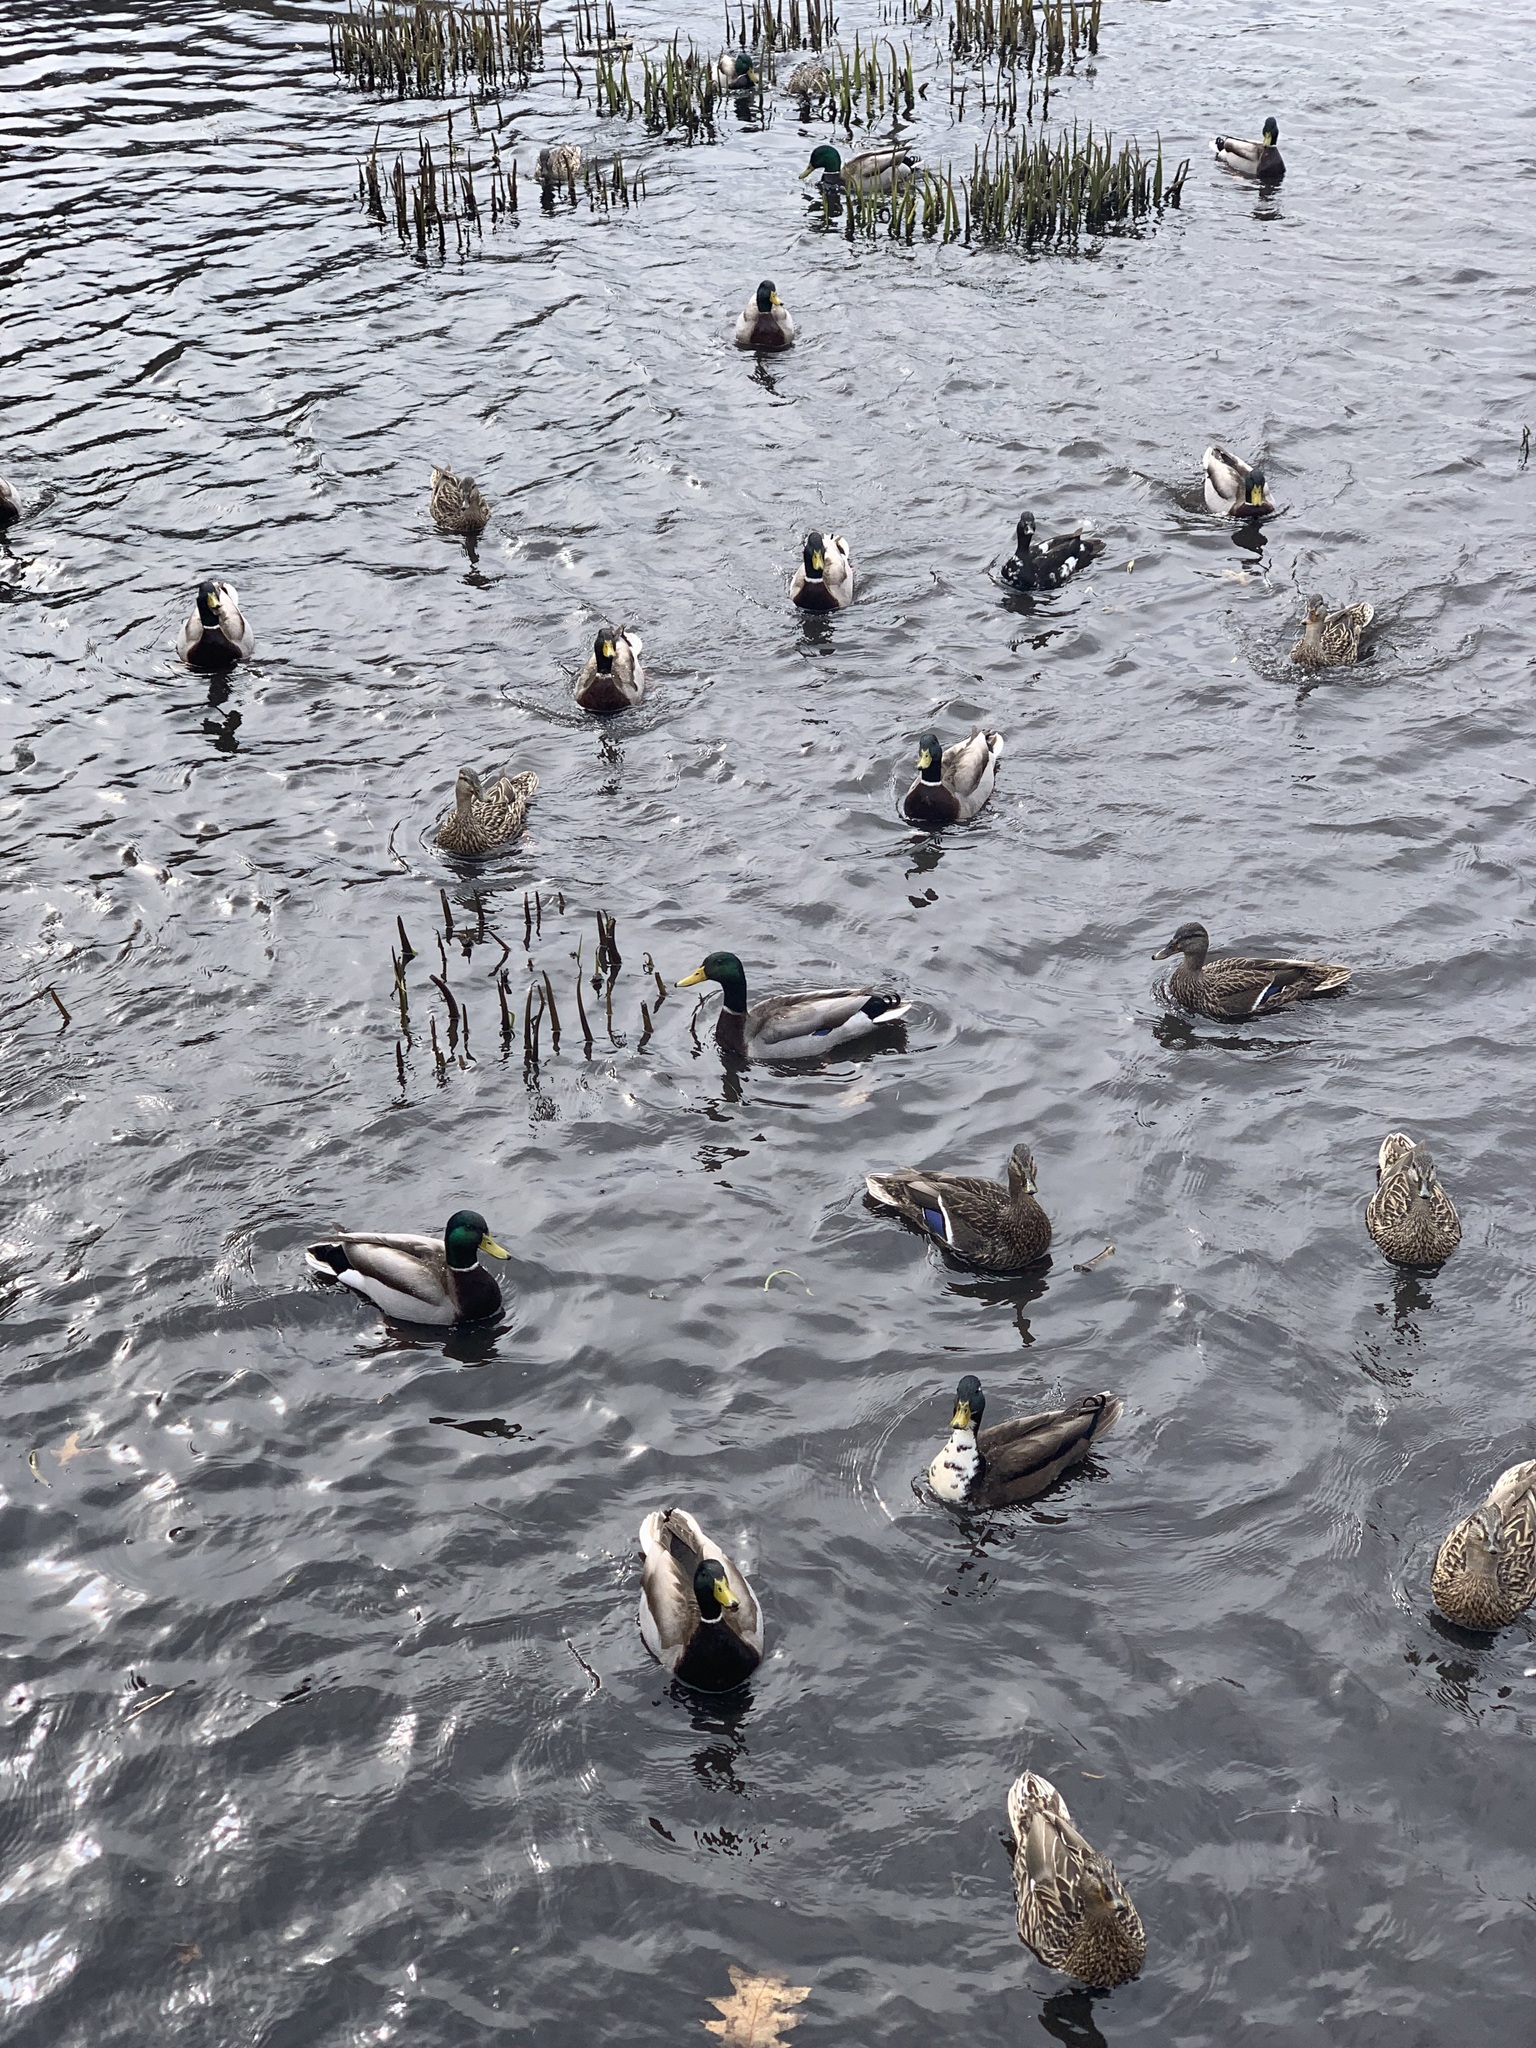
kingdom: Animalia
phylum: Chordata
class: Aves
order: Anseriformes
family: Anatidae
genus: Anas
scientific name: Anas platyrhynchos
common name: Mallard
